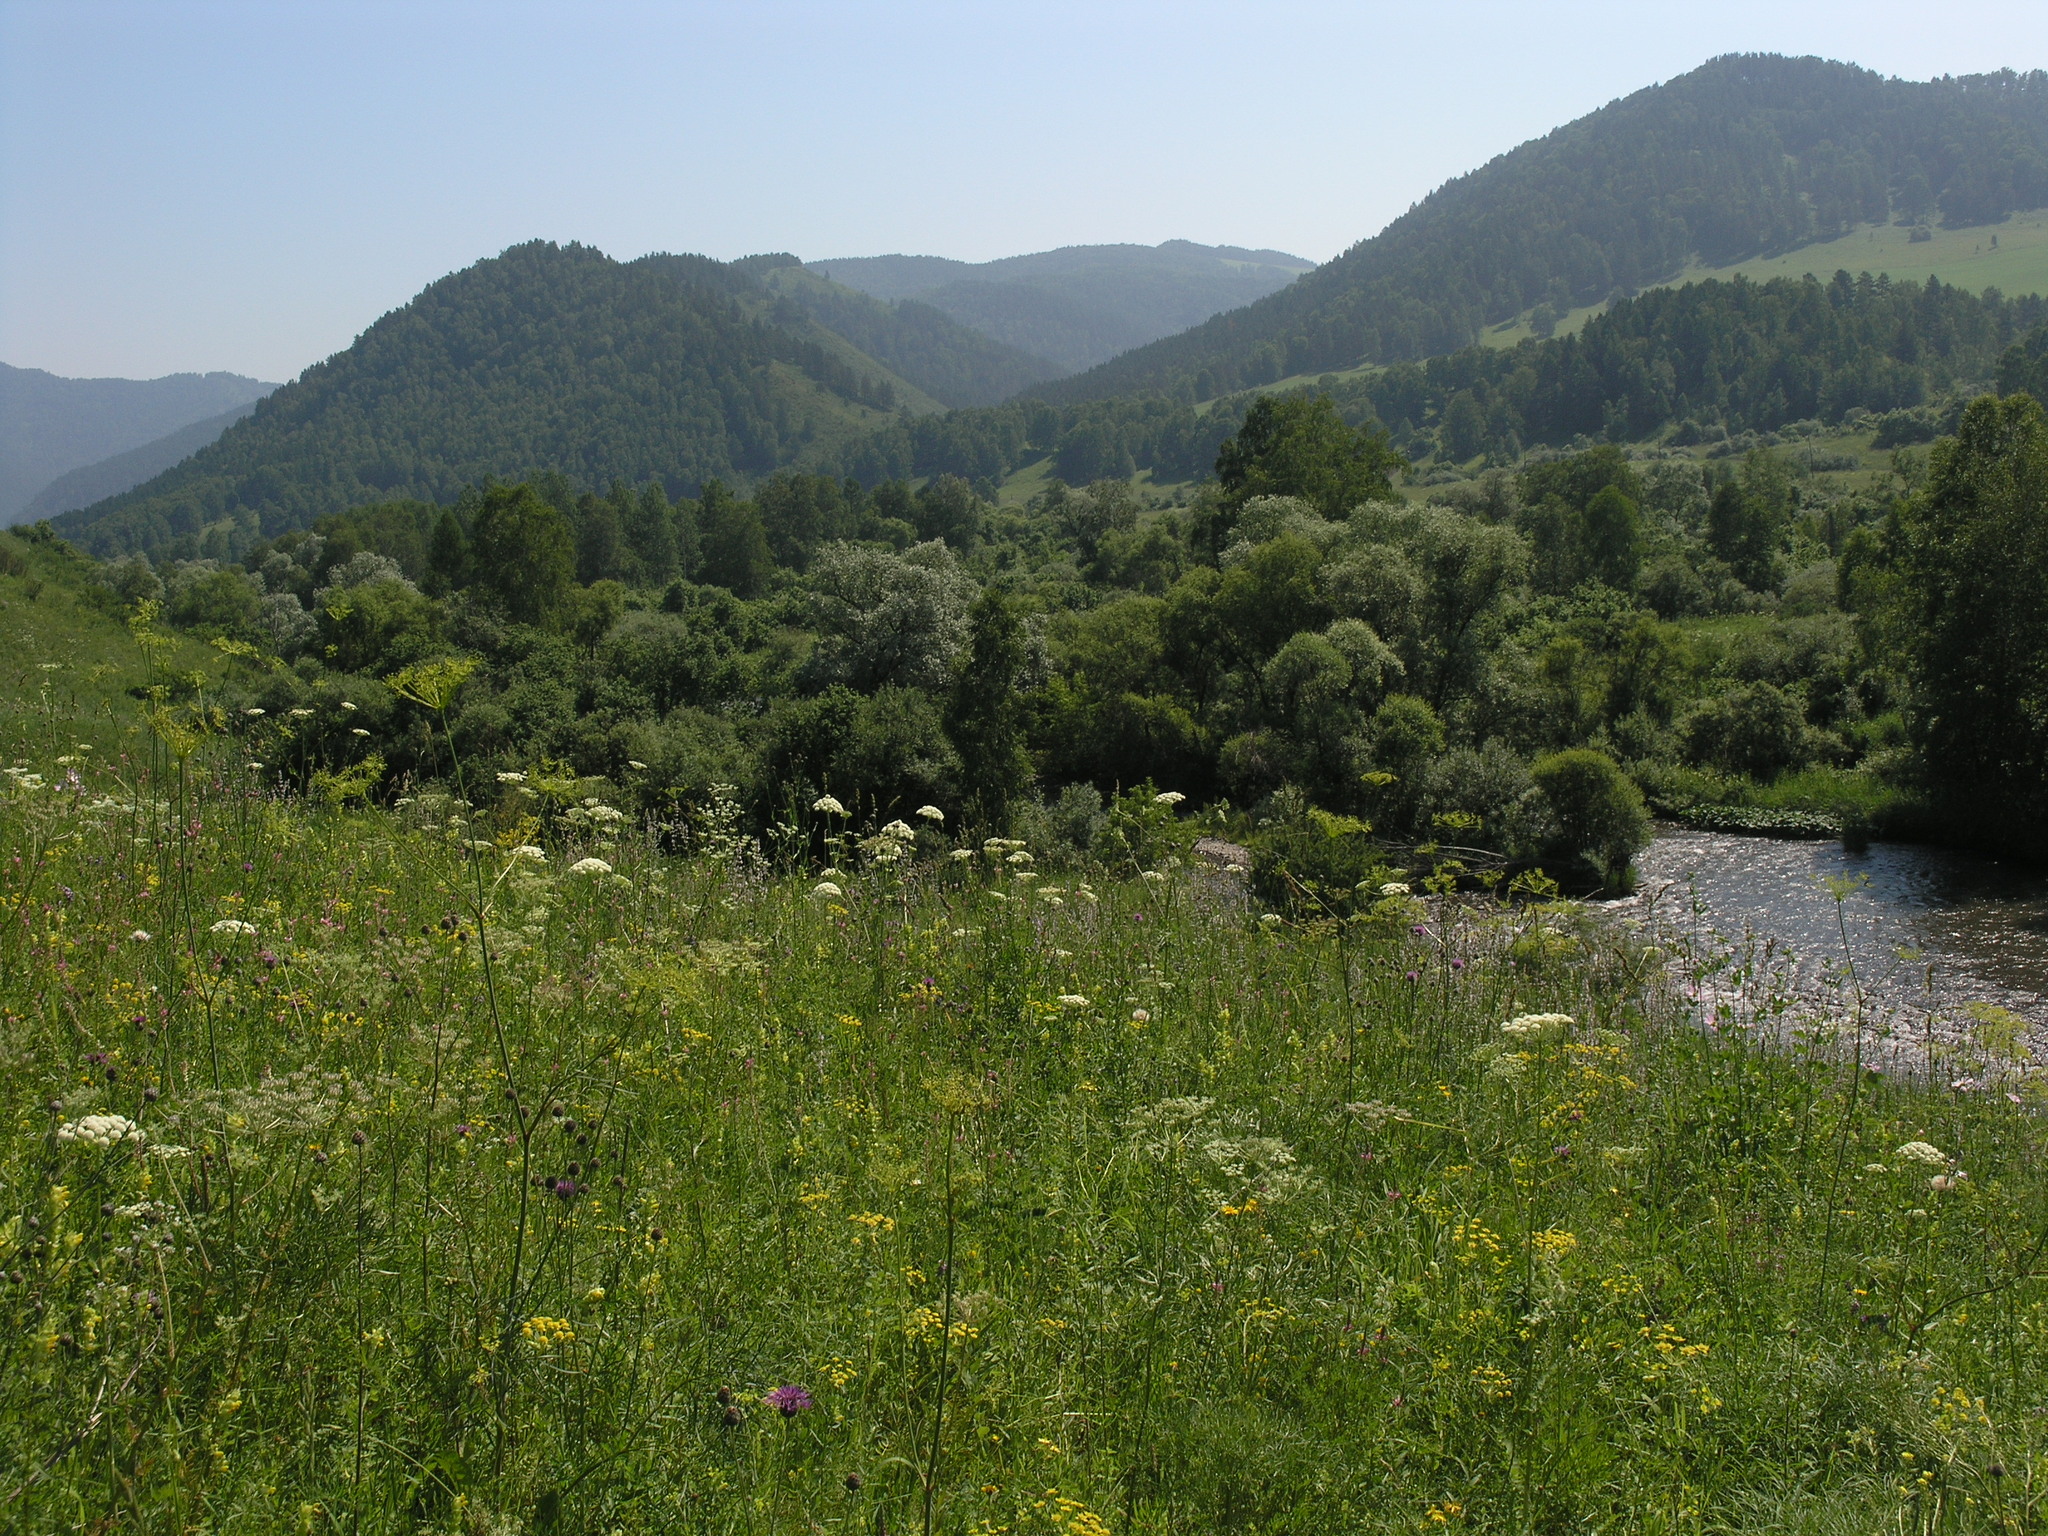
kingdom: Plantae
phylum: Tracheophyta
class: Magnoliopsida
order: Apiales
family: Apiaceae
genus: Peucedanum
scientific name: Peucedanum morisonii
